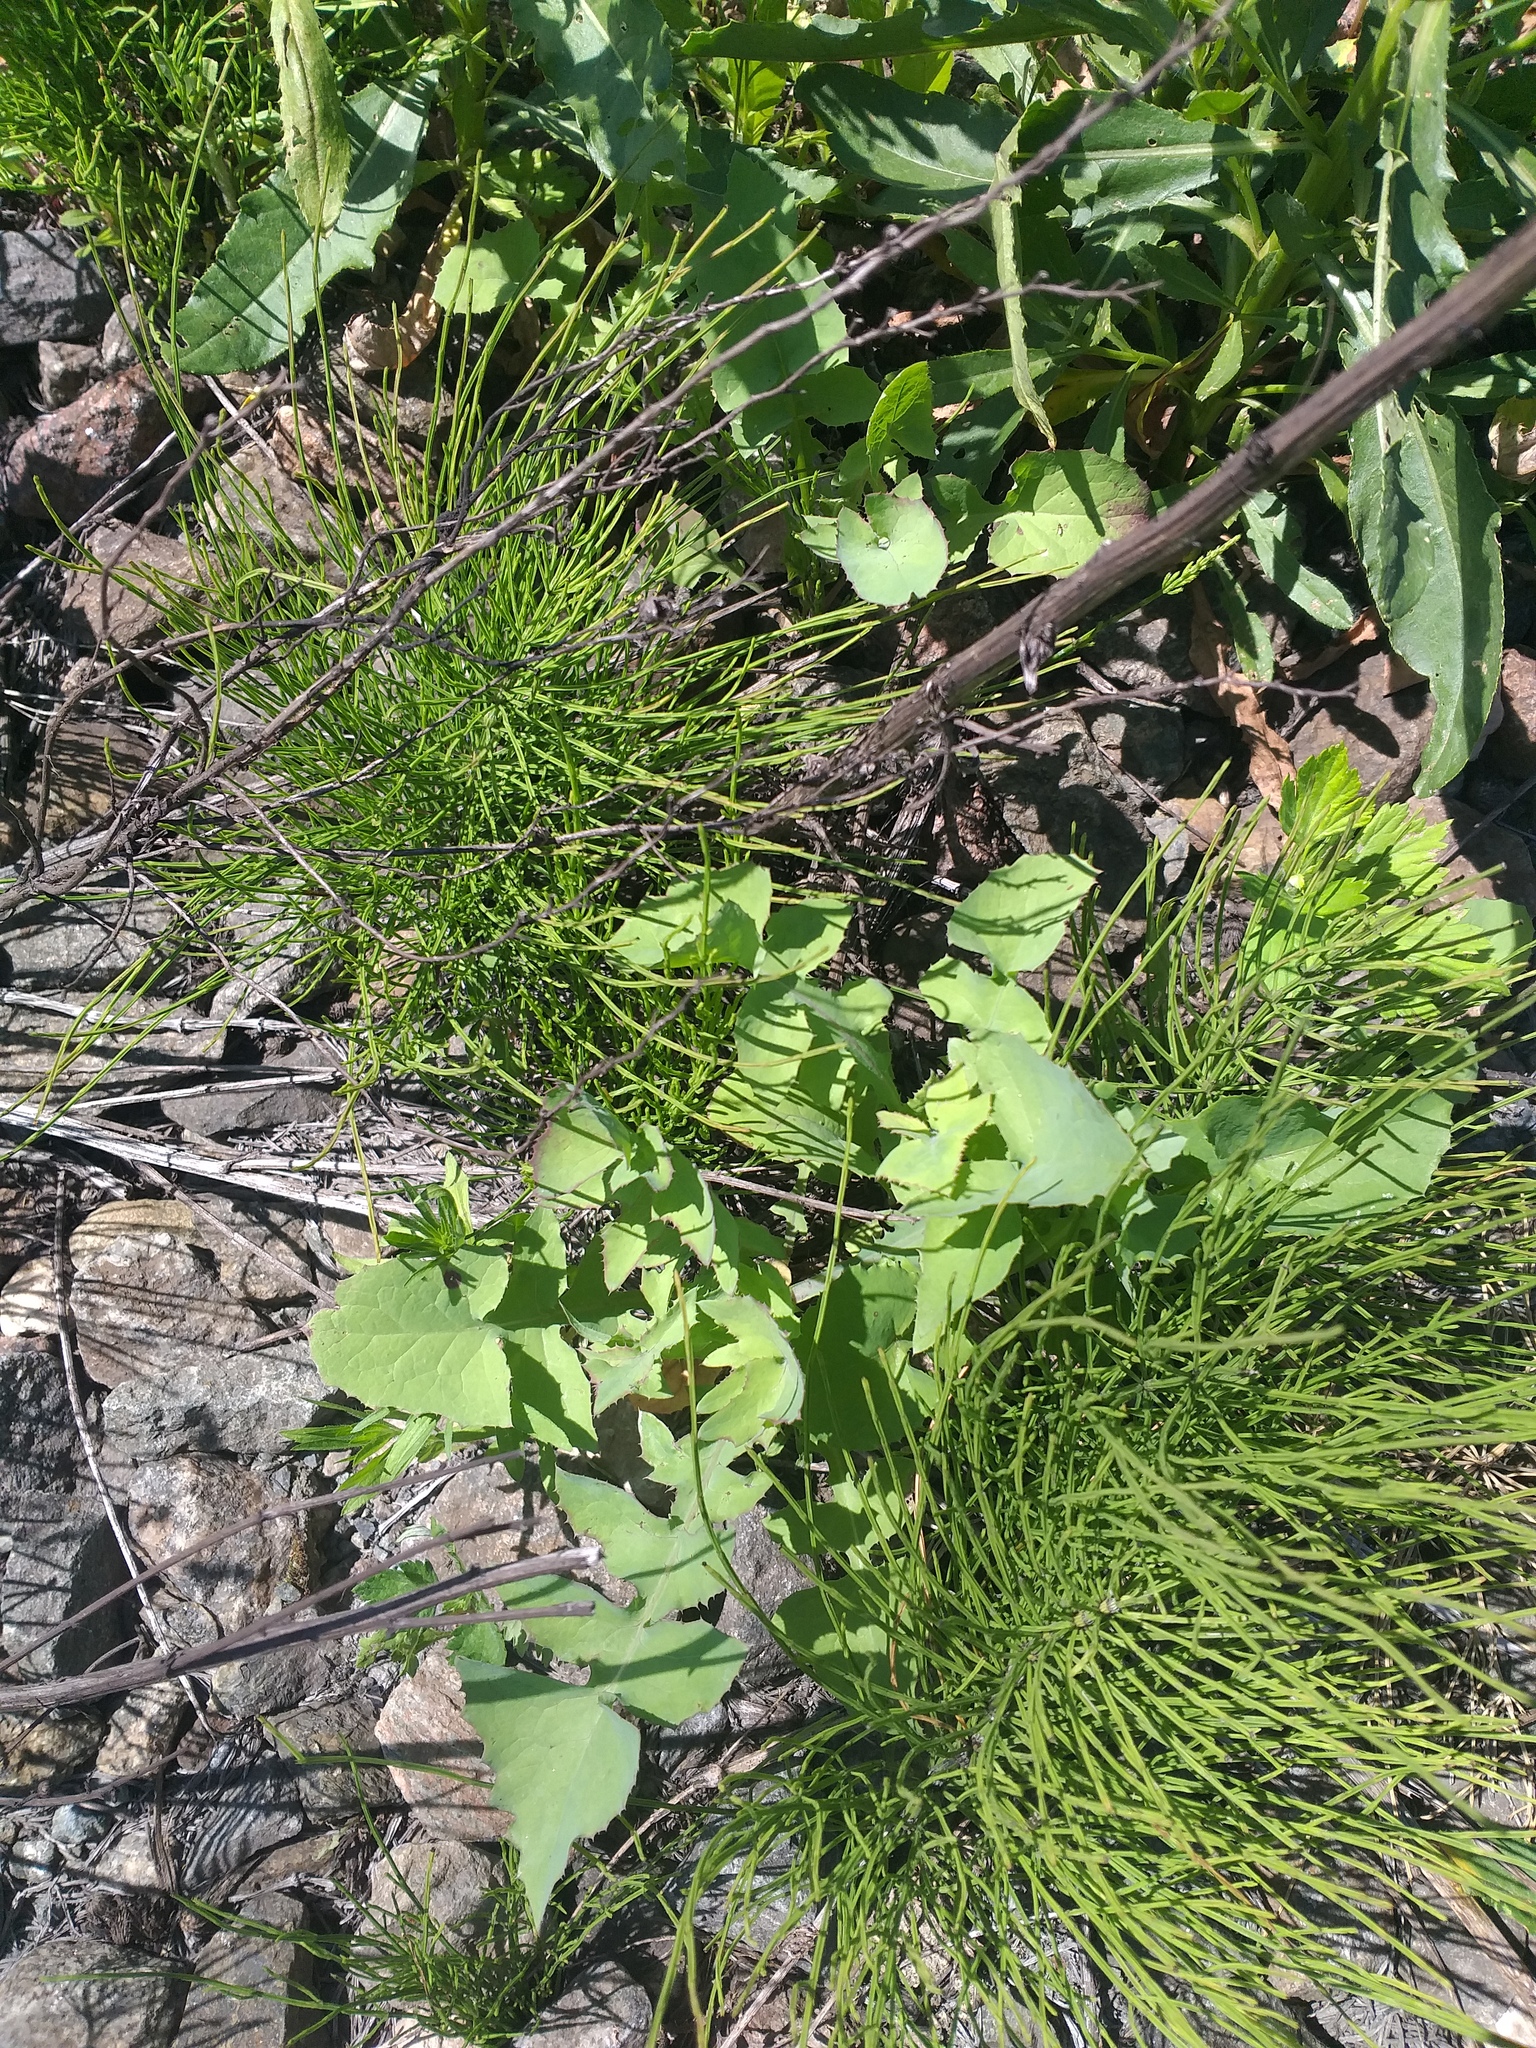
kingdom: Plantae
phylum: Tracheophyta
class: Magnoliopsida
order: Asterales
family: Asteraceae
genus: Sonchus
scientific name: Sonchus oleraceus
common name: Common sowthistle
